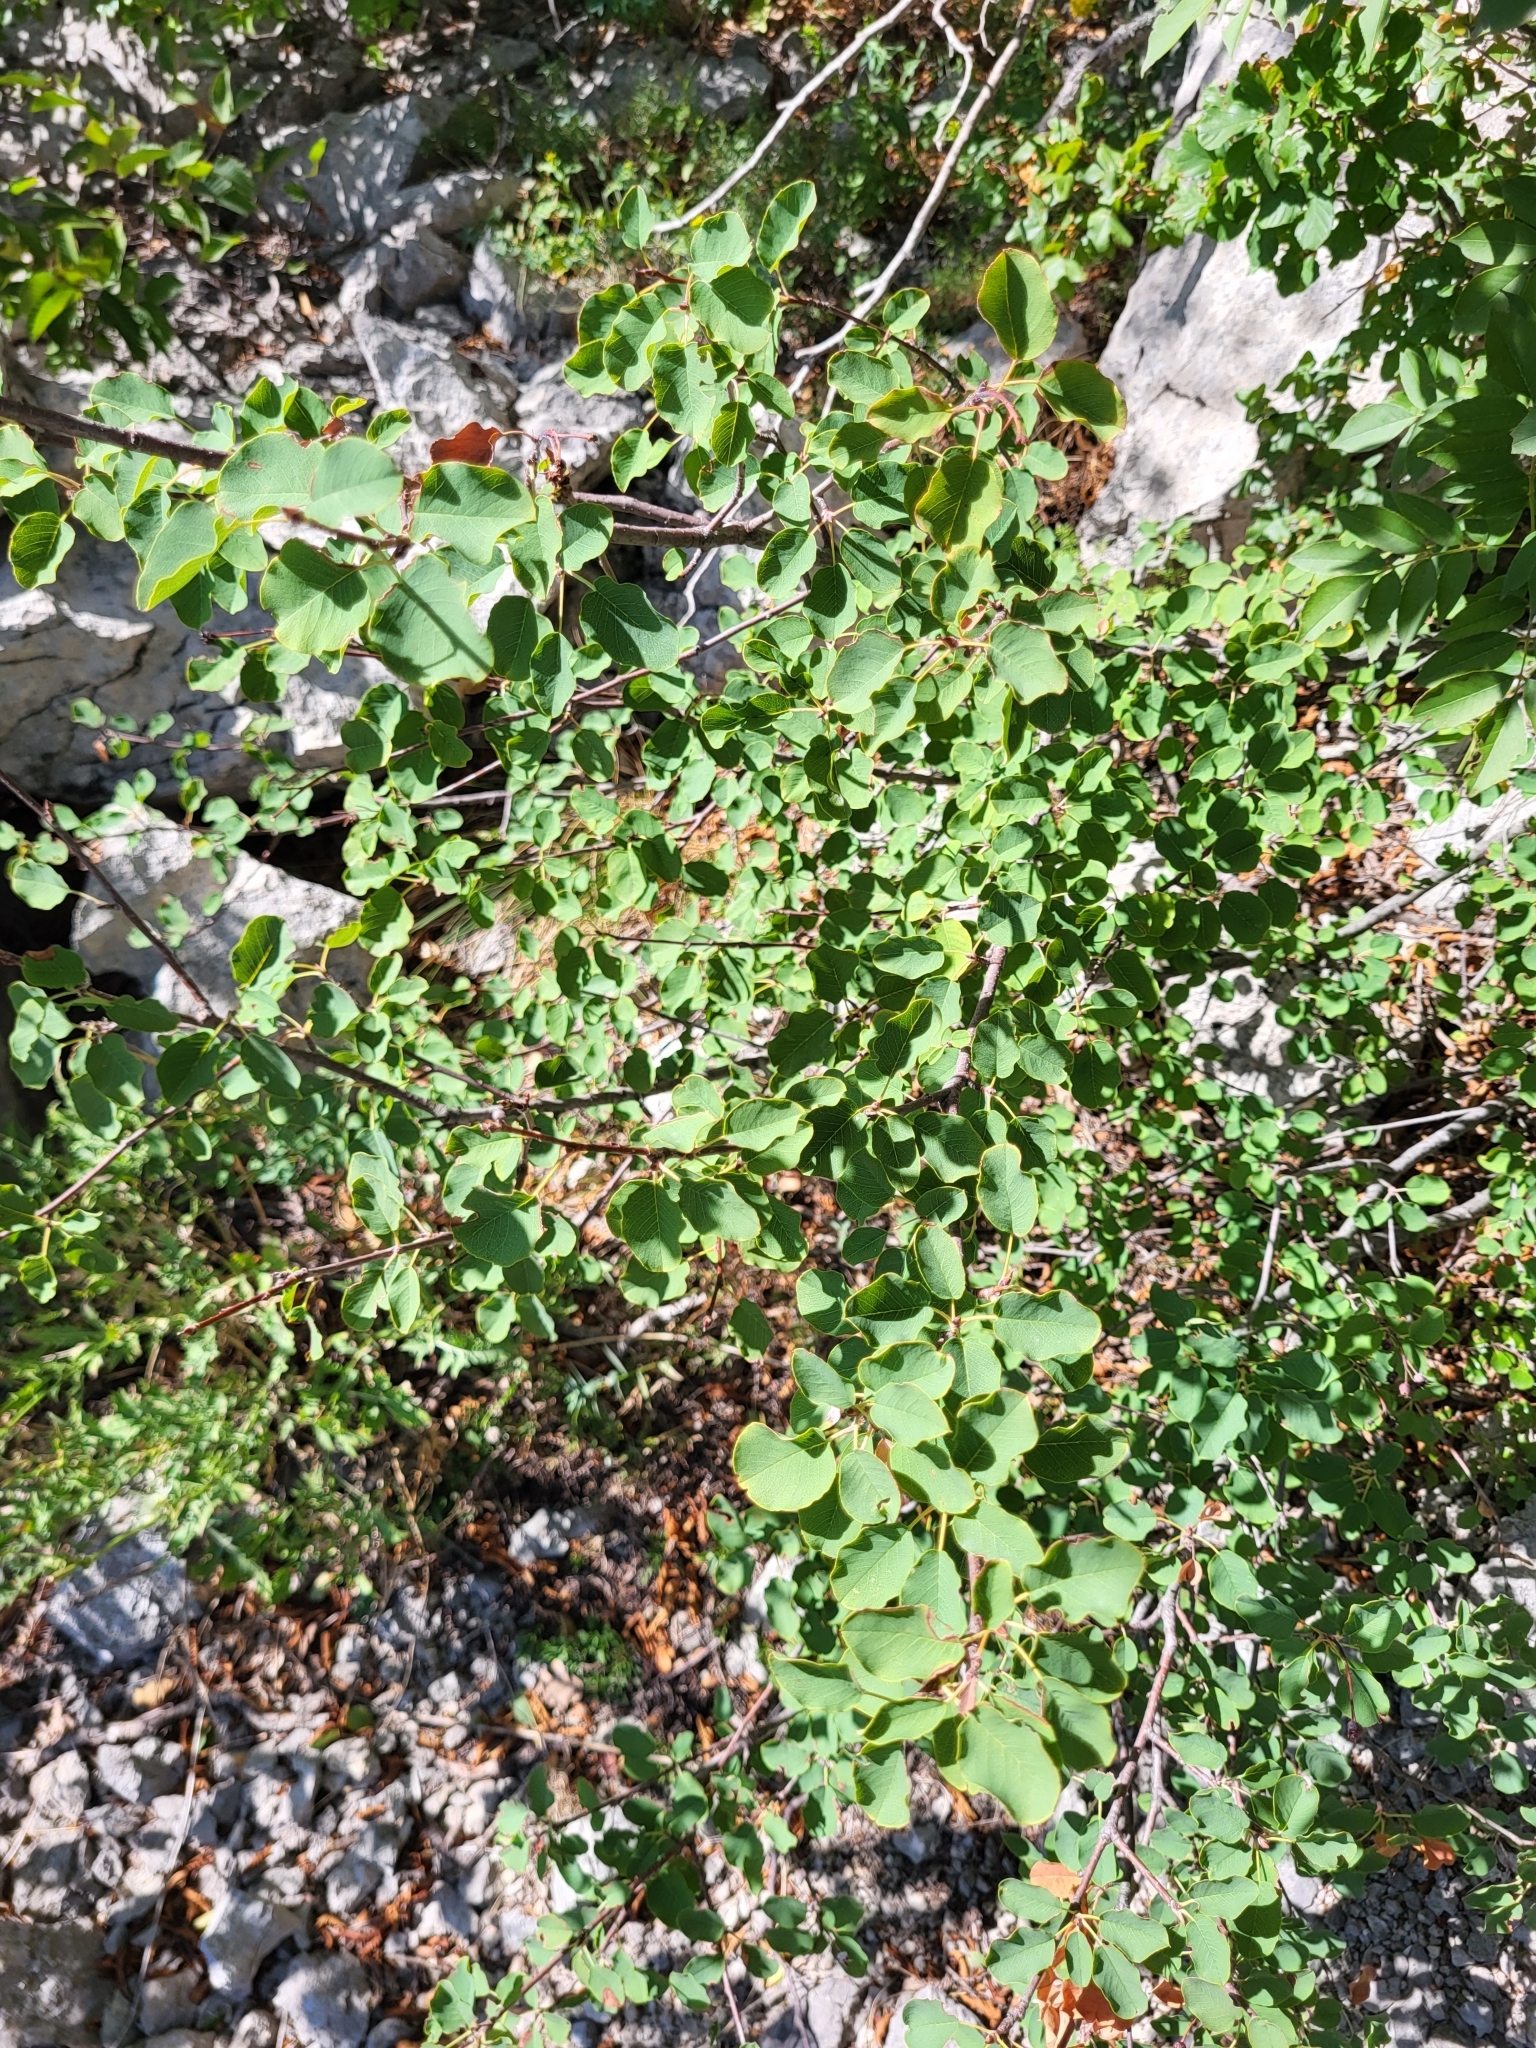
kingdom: Plantae
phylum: Tracheophyta
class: Magnoliopsida
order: Rosales
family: Rosaceae
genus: Amelanchier
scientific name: Amelanchier ovalis
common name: Serviceberry
